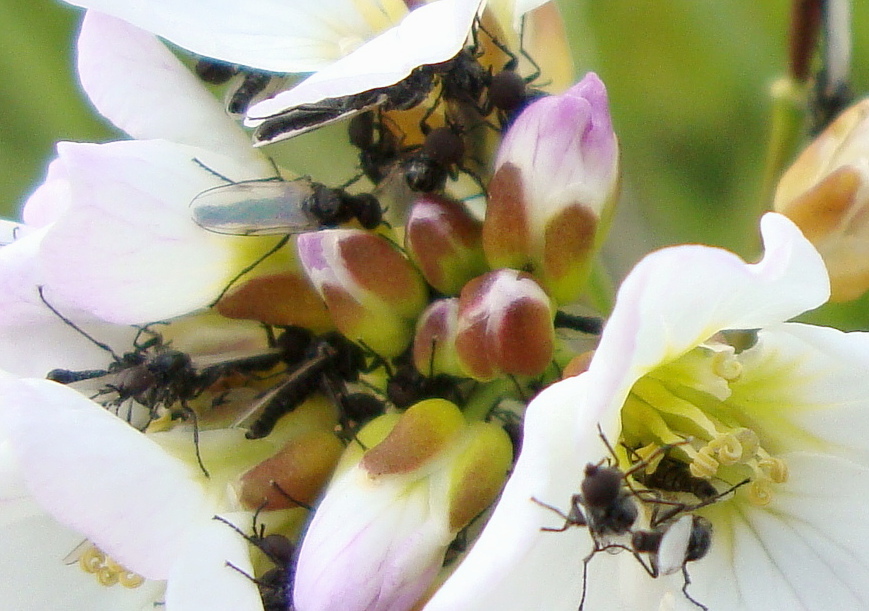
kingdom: Animalia
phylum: Arthropoda
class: Insecta
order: Diptera
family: Bibionidae
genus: Dilophus
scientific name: Dilophus femoratus
